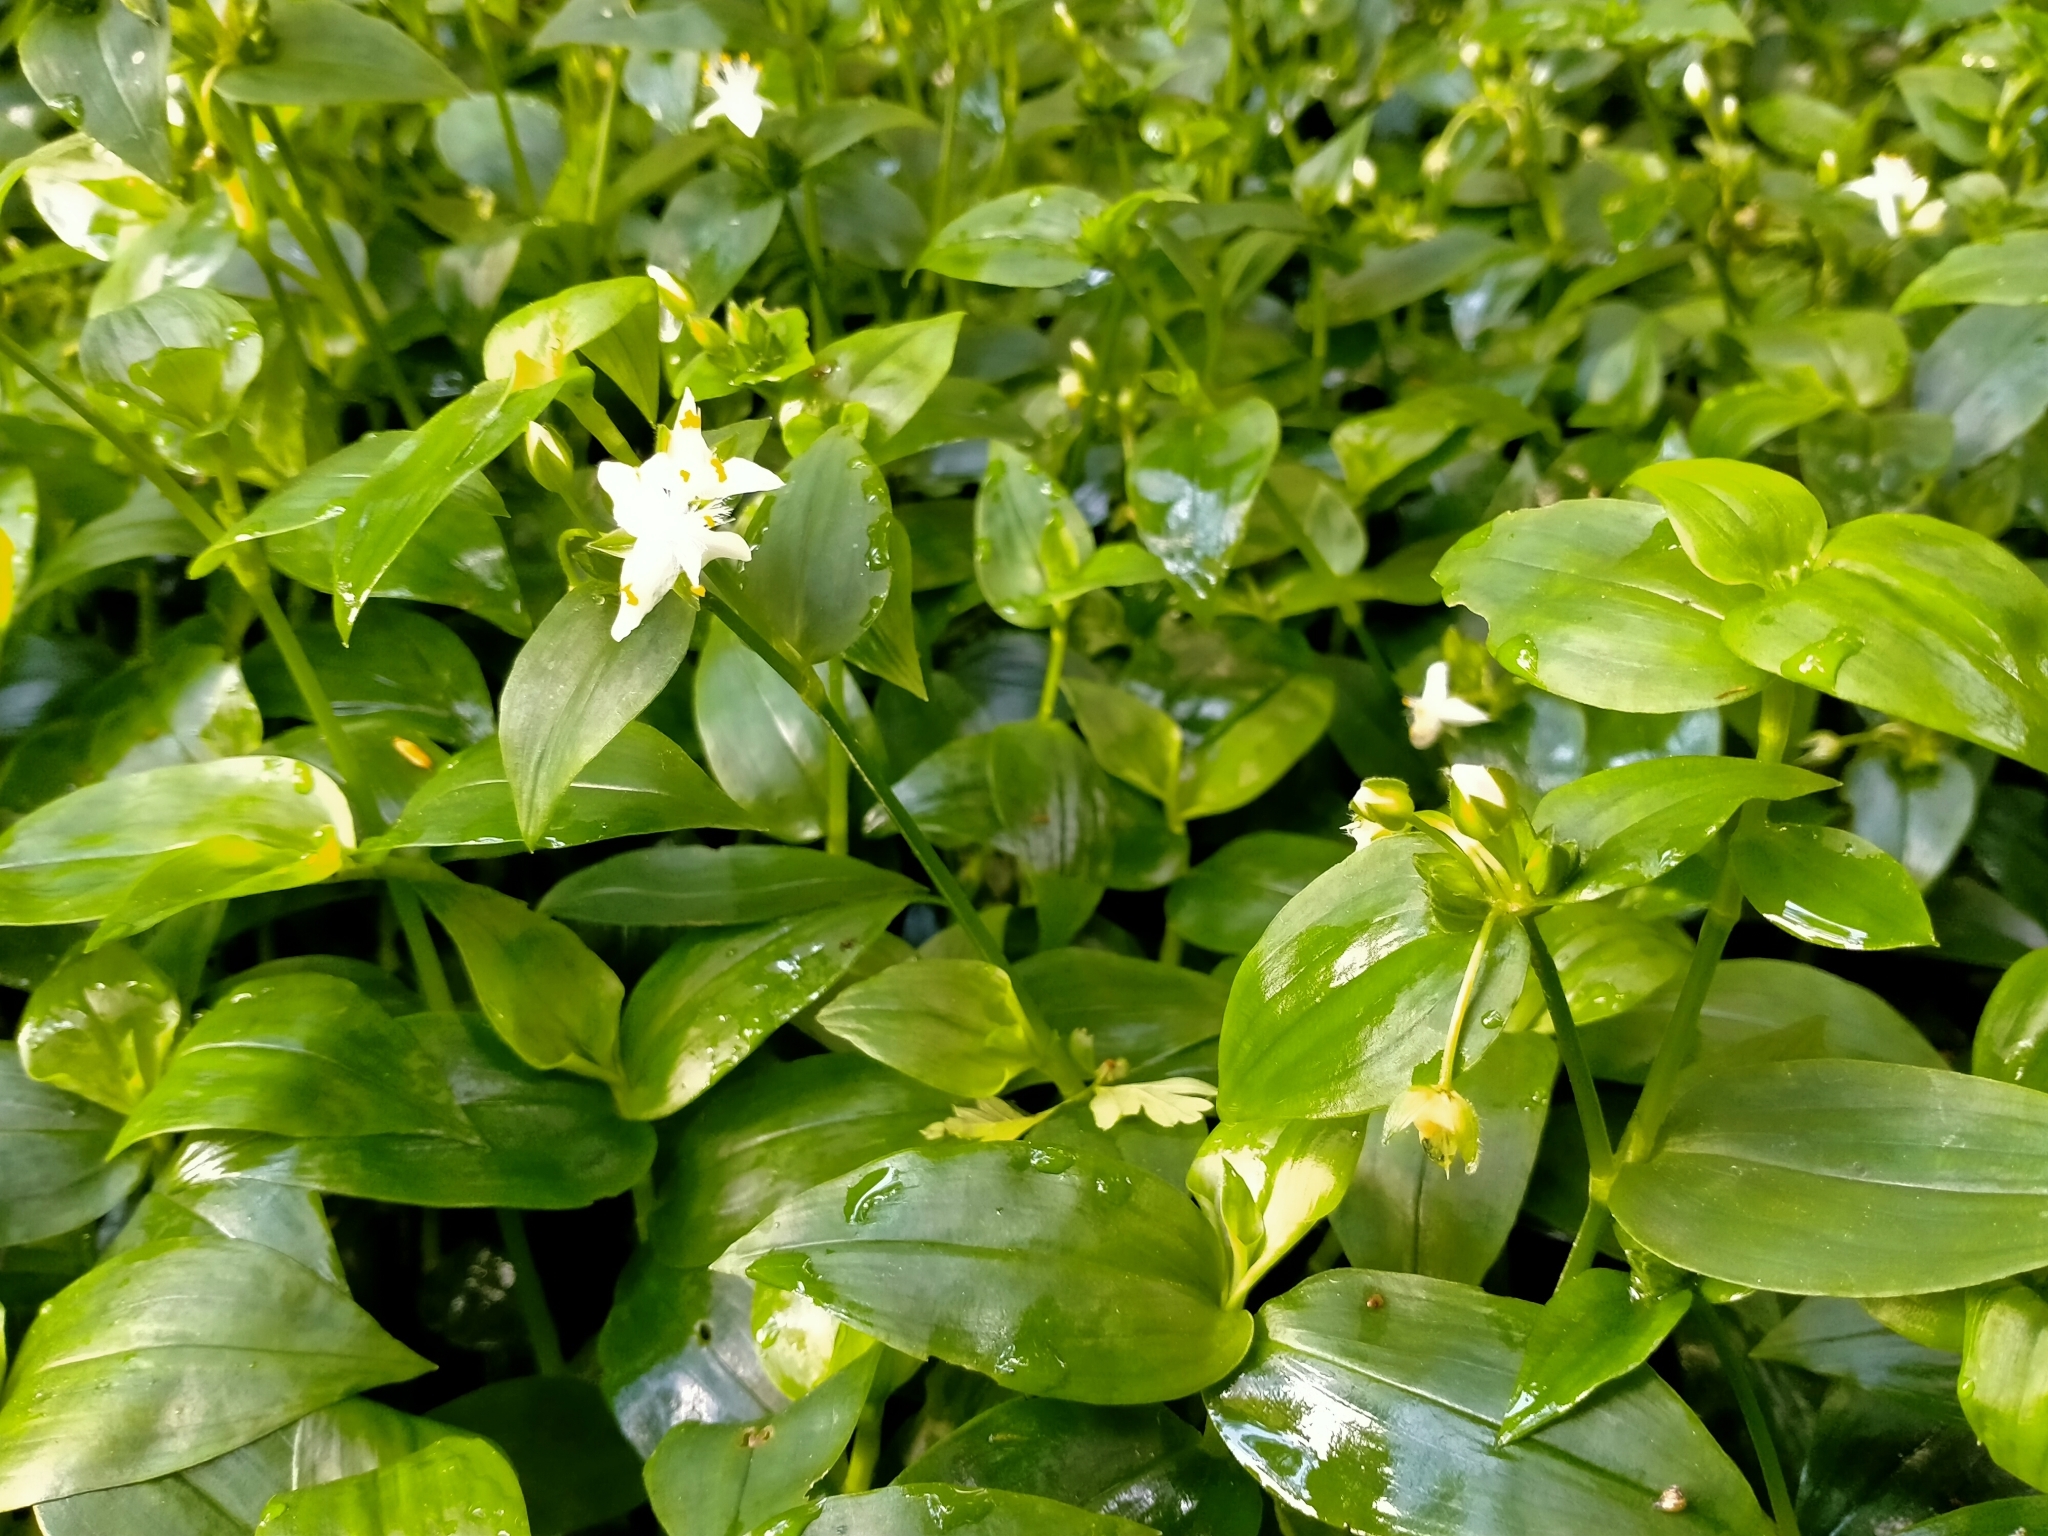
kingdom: Plantae
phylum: Tracheophyta
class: Liliopsida
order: Commelinales
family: Commelinaceae
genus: Tradescantia
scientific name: Tradescantia fluminensis
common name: Wandering-jew
